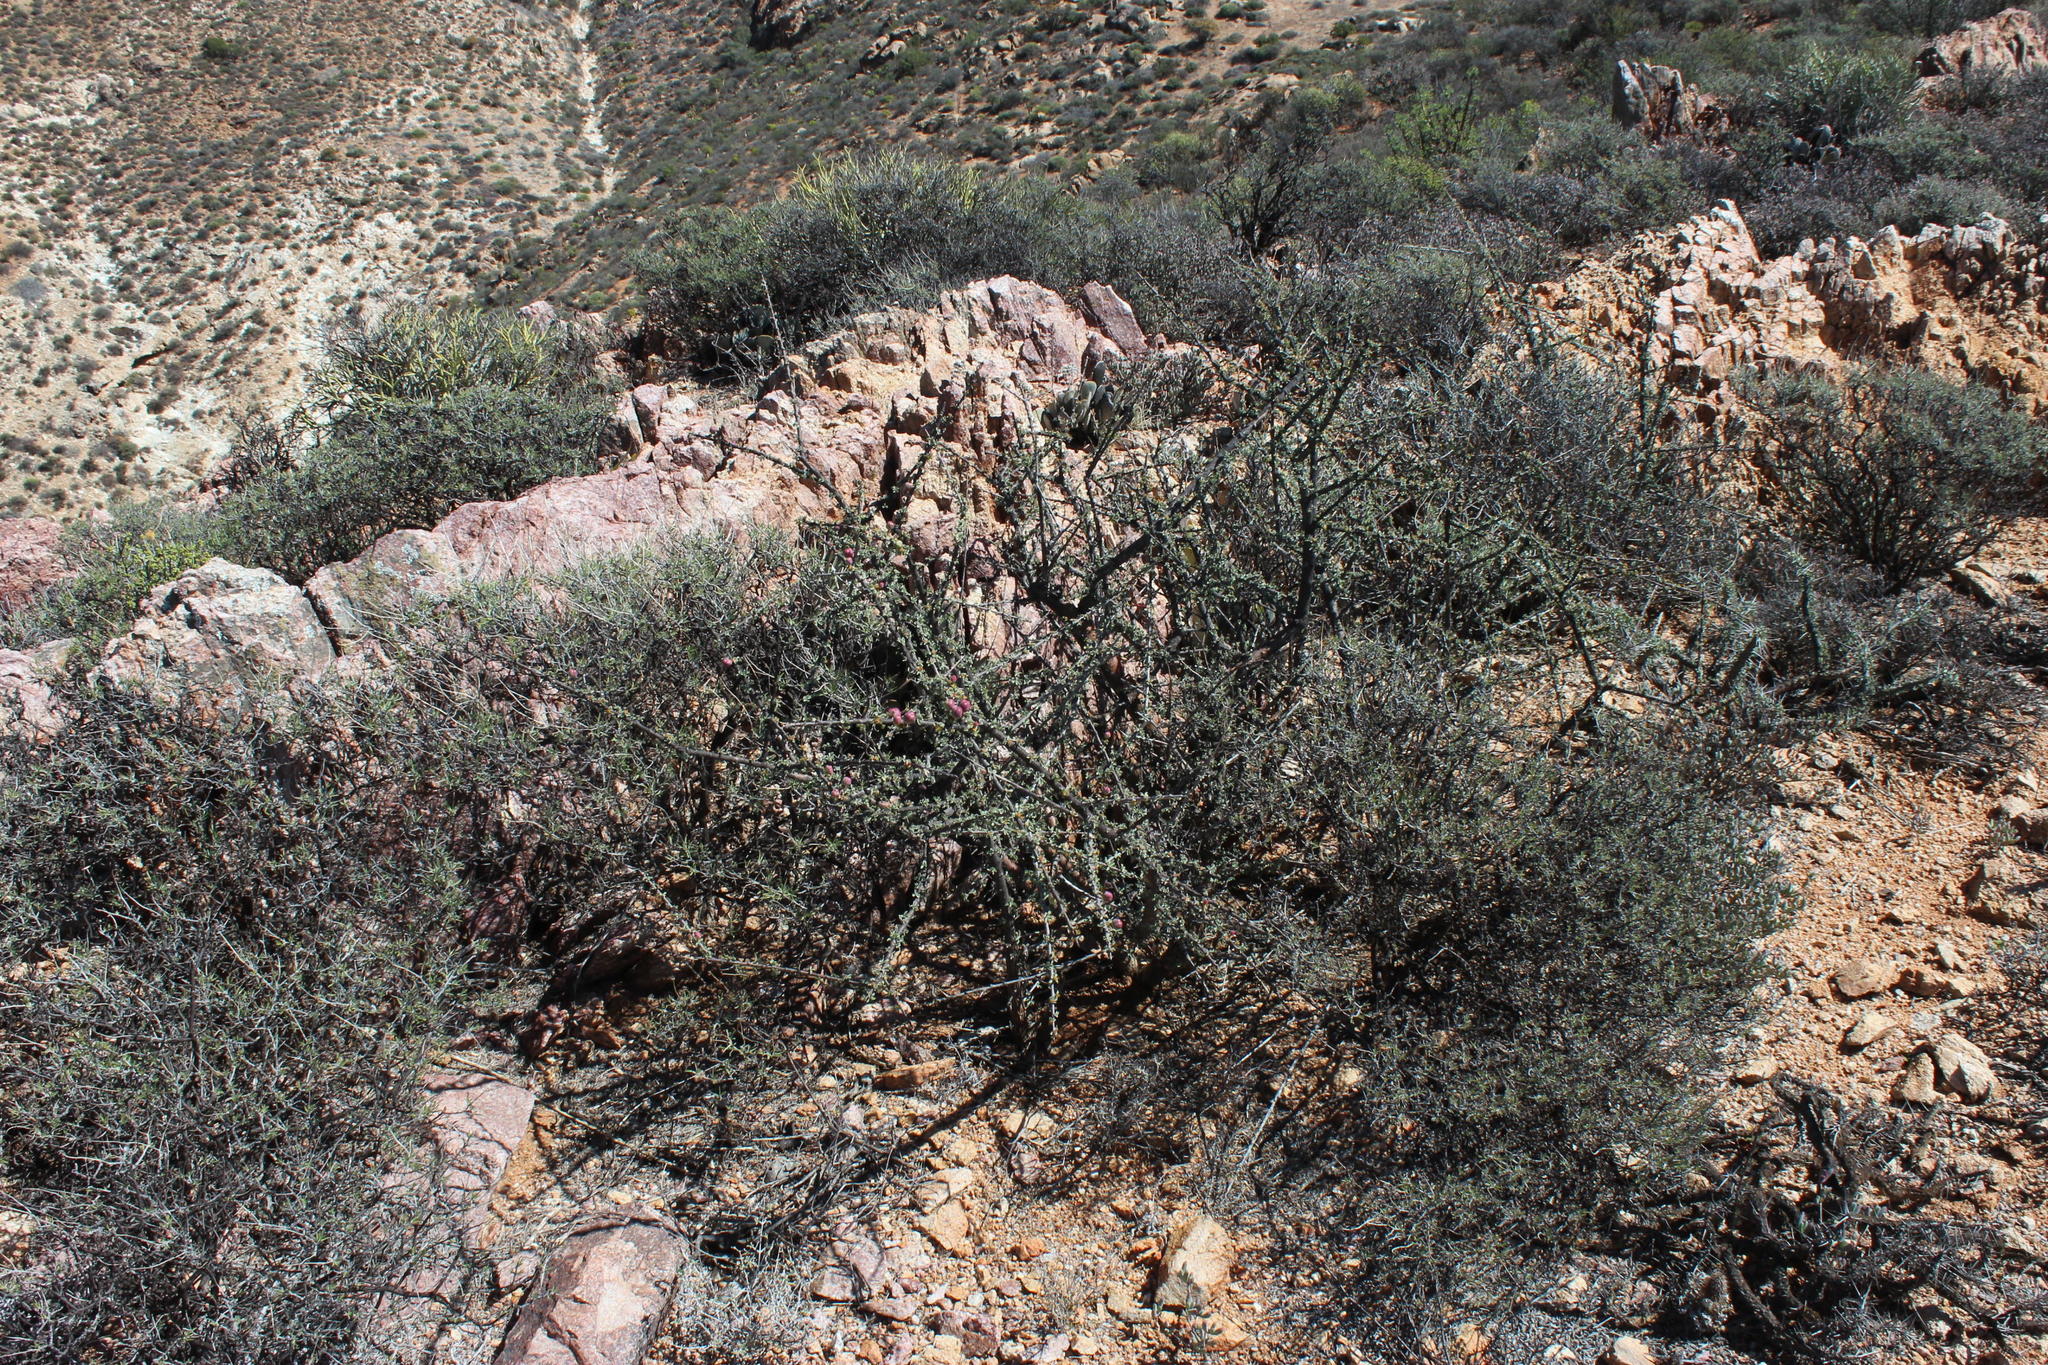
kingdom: Plantae
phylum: Tracheophyta
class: Magnoliopsida
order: Malpighiales
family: Euphorbiaceae
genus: Euphorbia
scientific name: Euphorbia guerichiana
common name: Paper-barked milkbush
